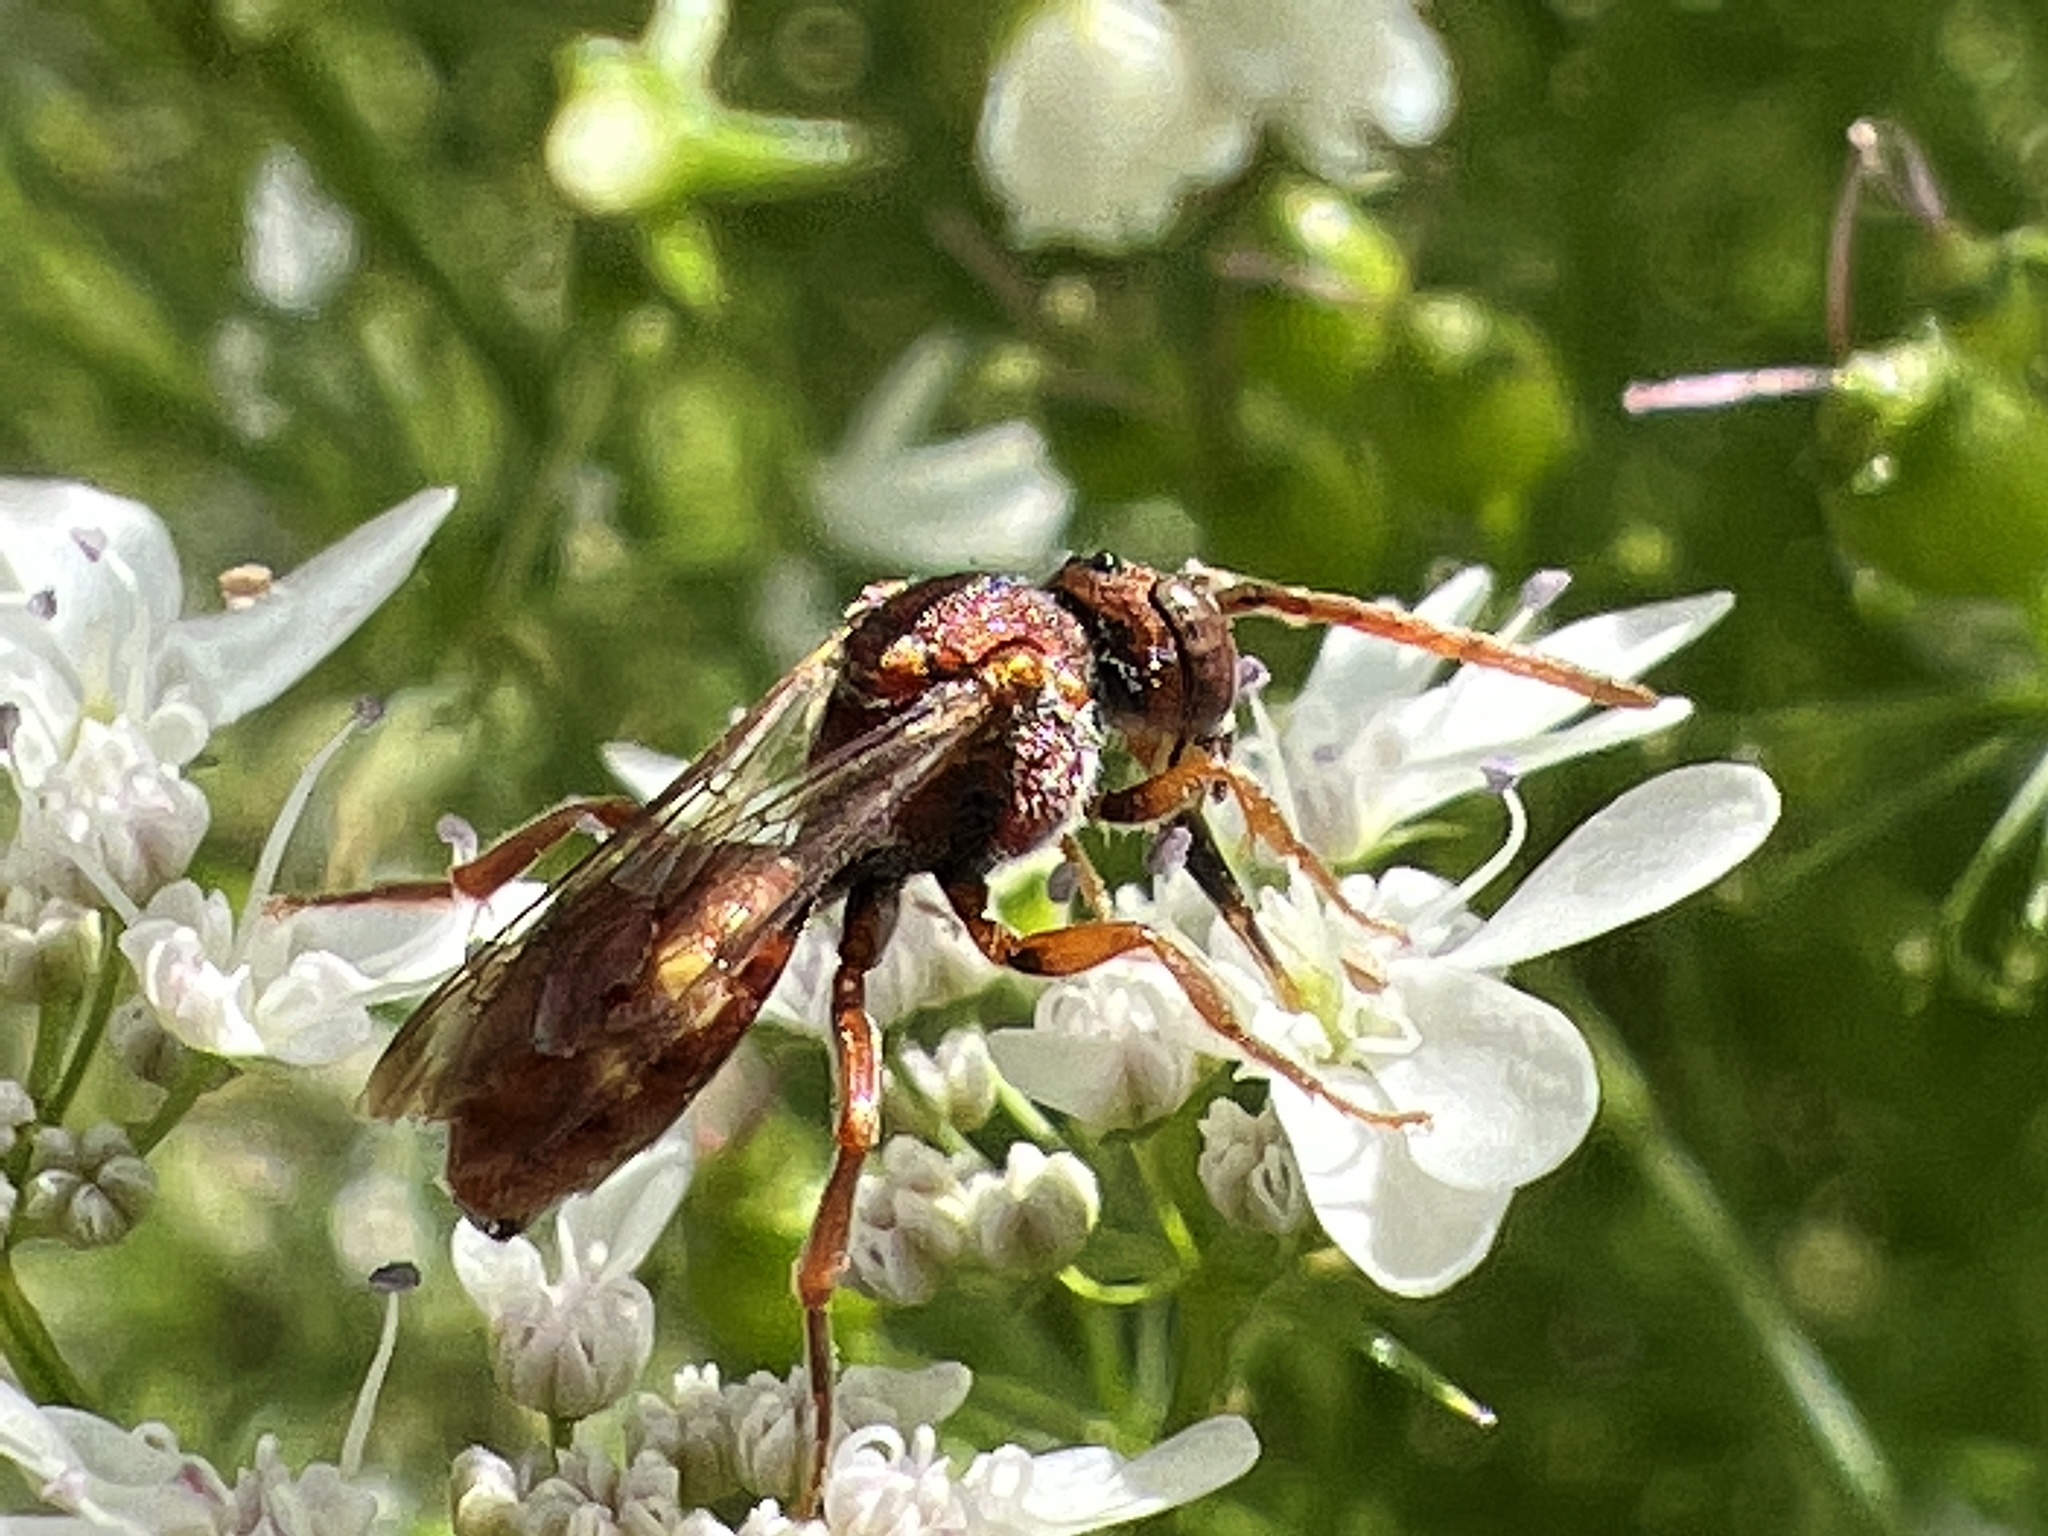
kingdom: Animalia
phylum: Arthropoda
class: Insecta
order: Hymenoptera
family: Apidae
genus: Nomada
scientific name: Nomada
